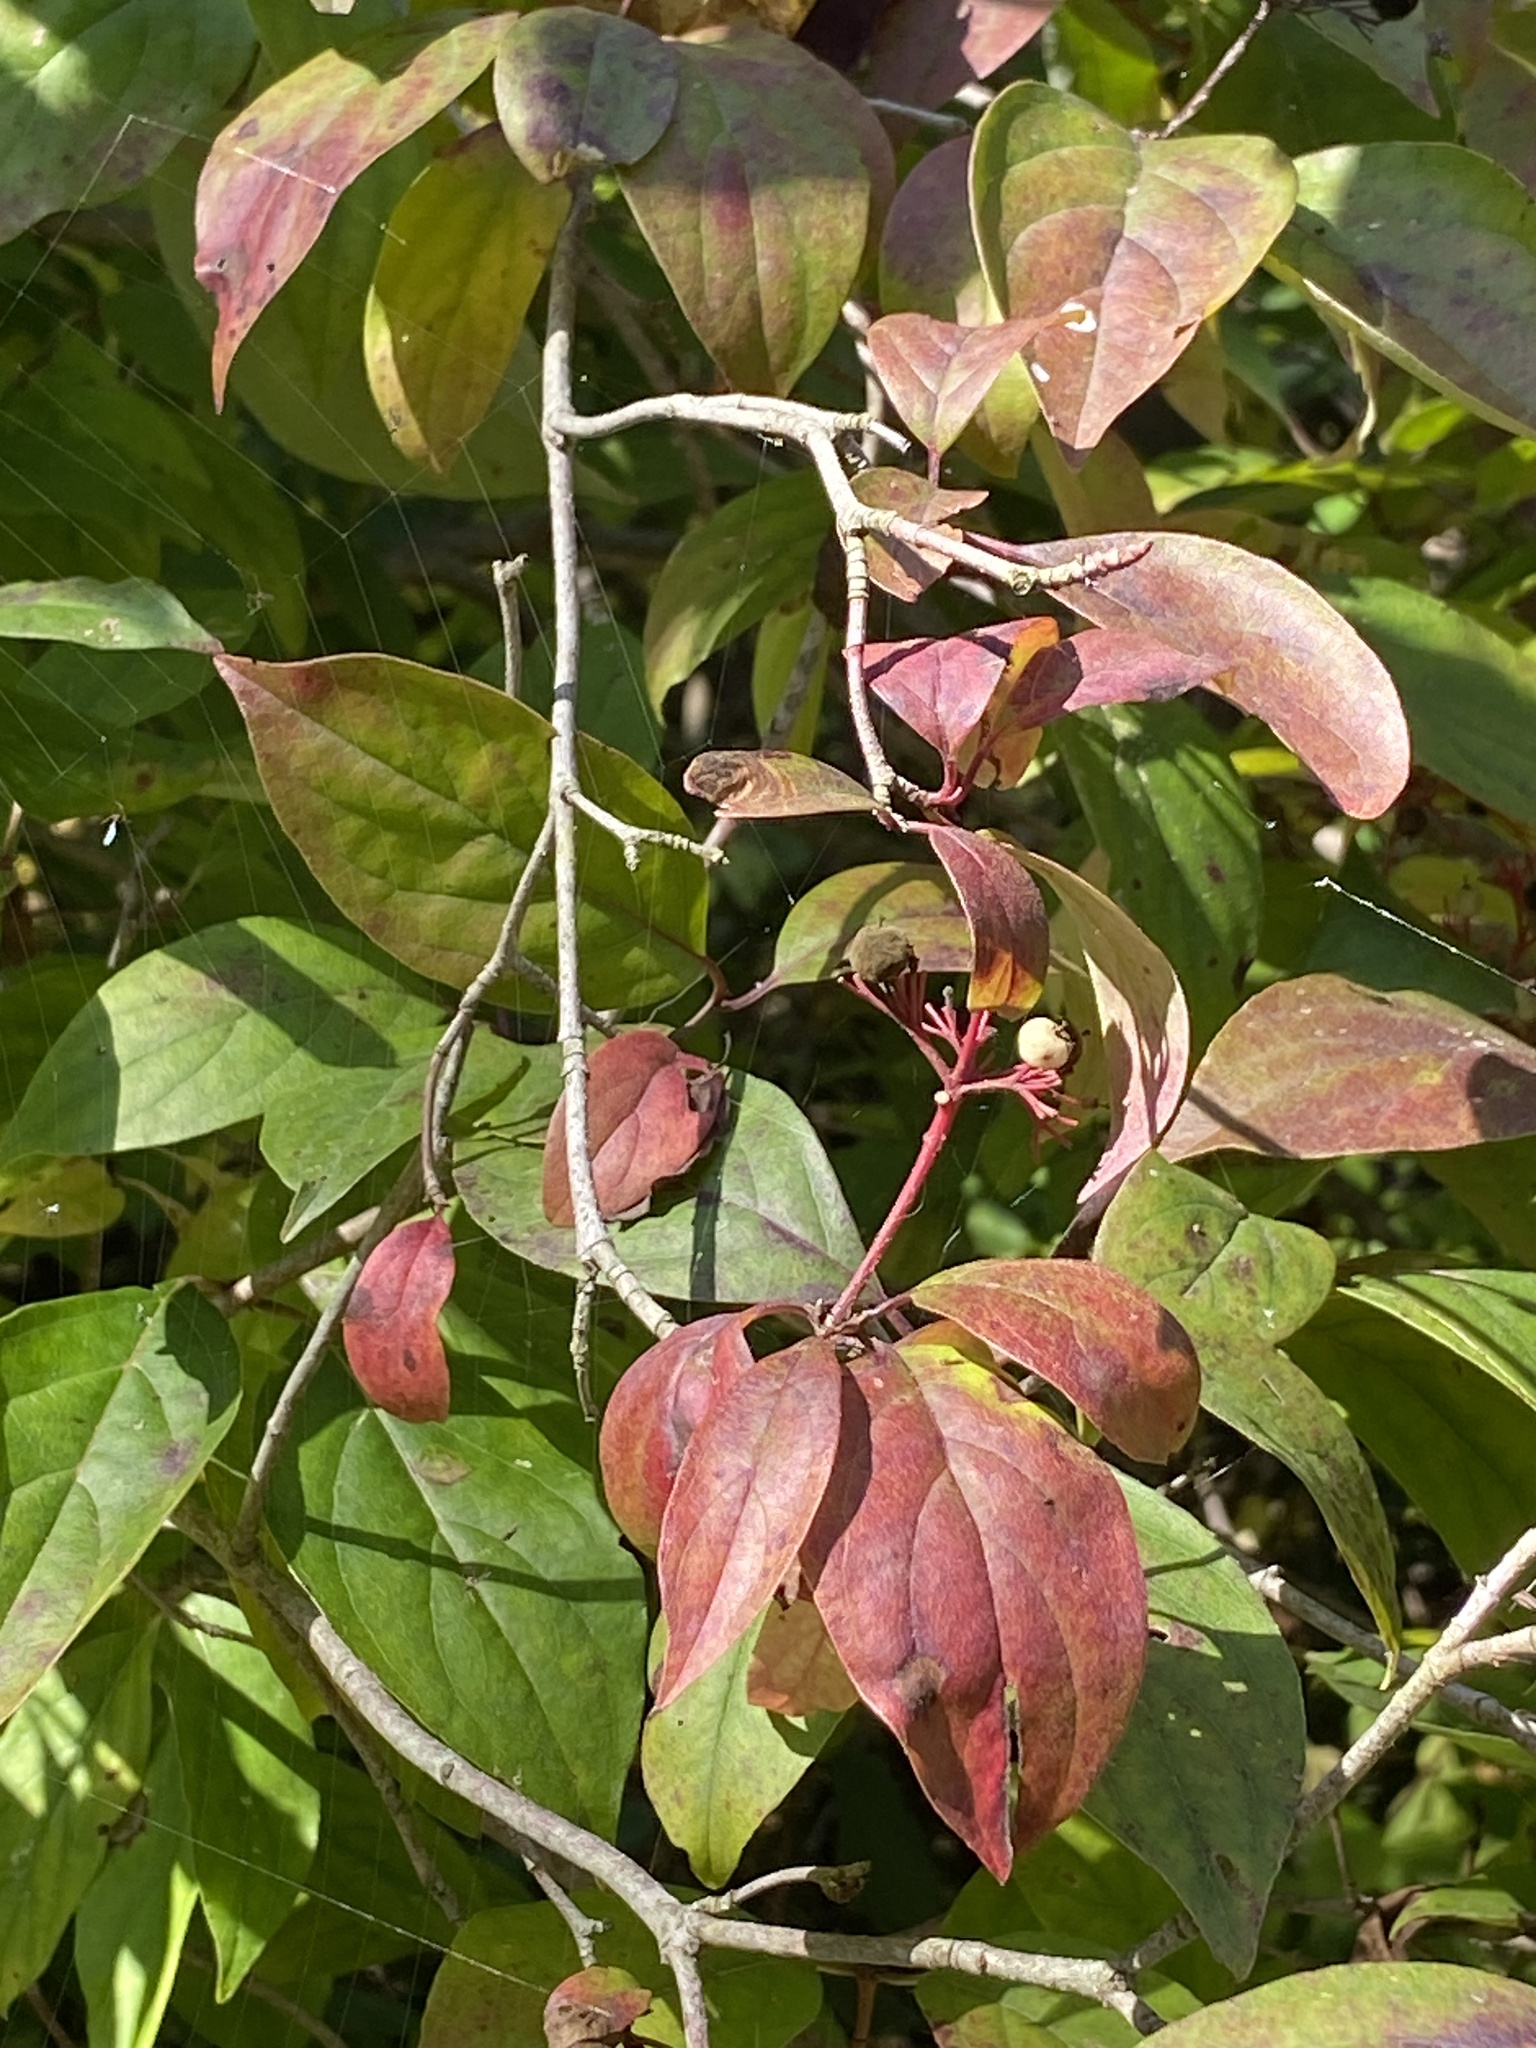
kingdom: Plantae
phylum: Tracheophyta
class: Magnoliopsida
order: Cornales
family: Cornaceae
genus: Cornus
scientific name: Cornus racemosa
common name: Panicled dogwood
